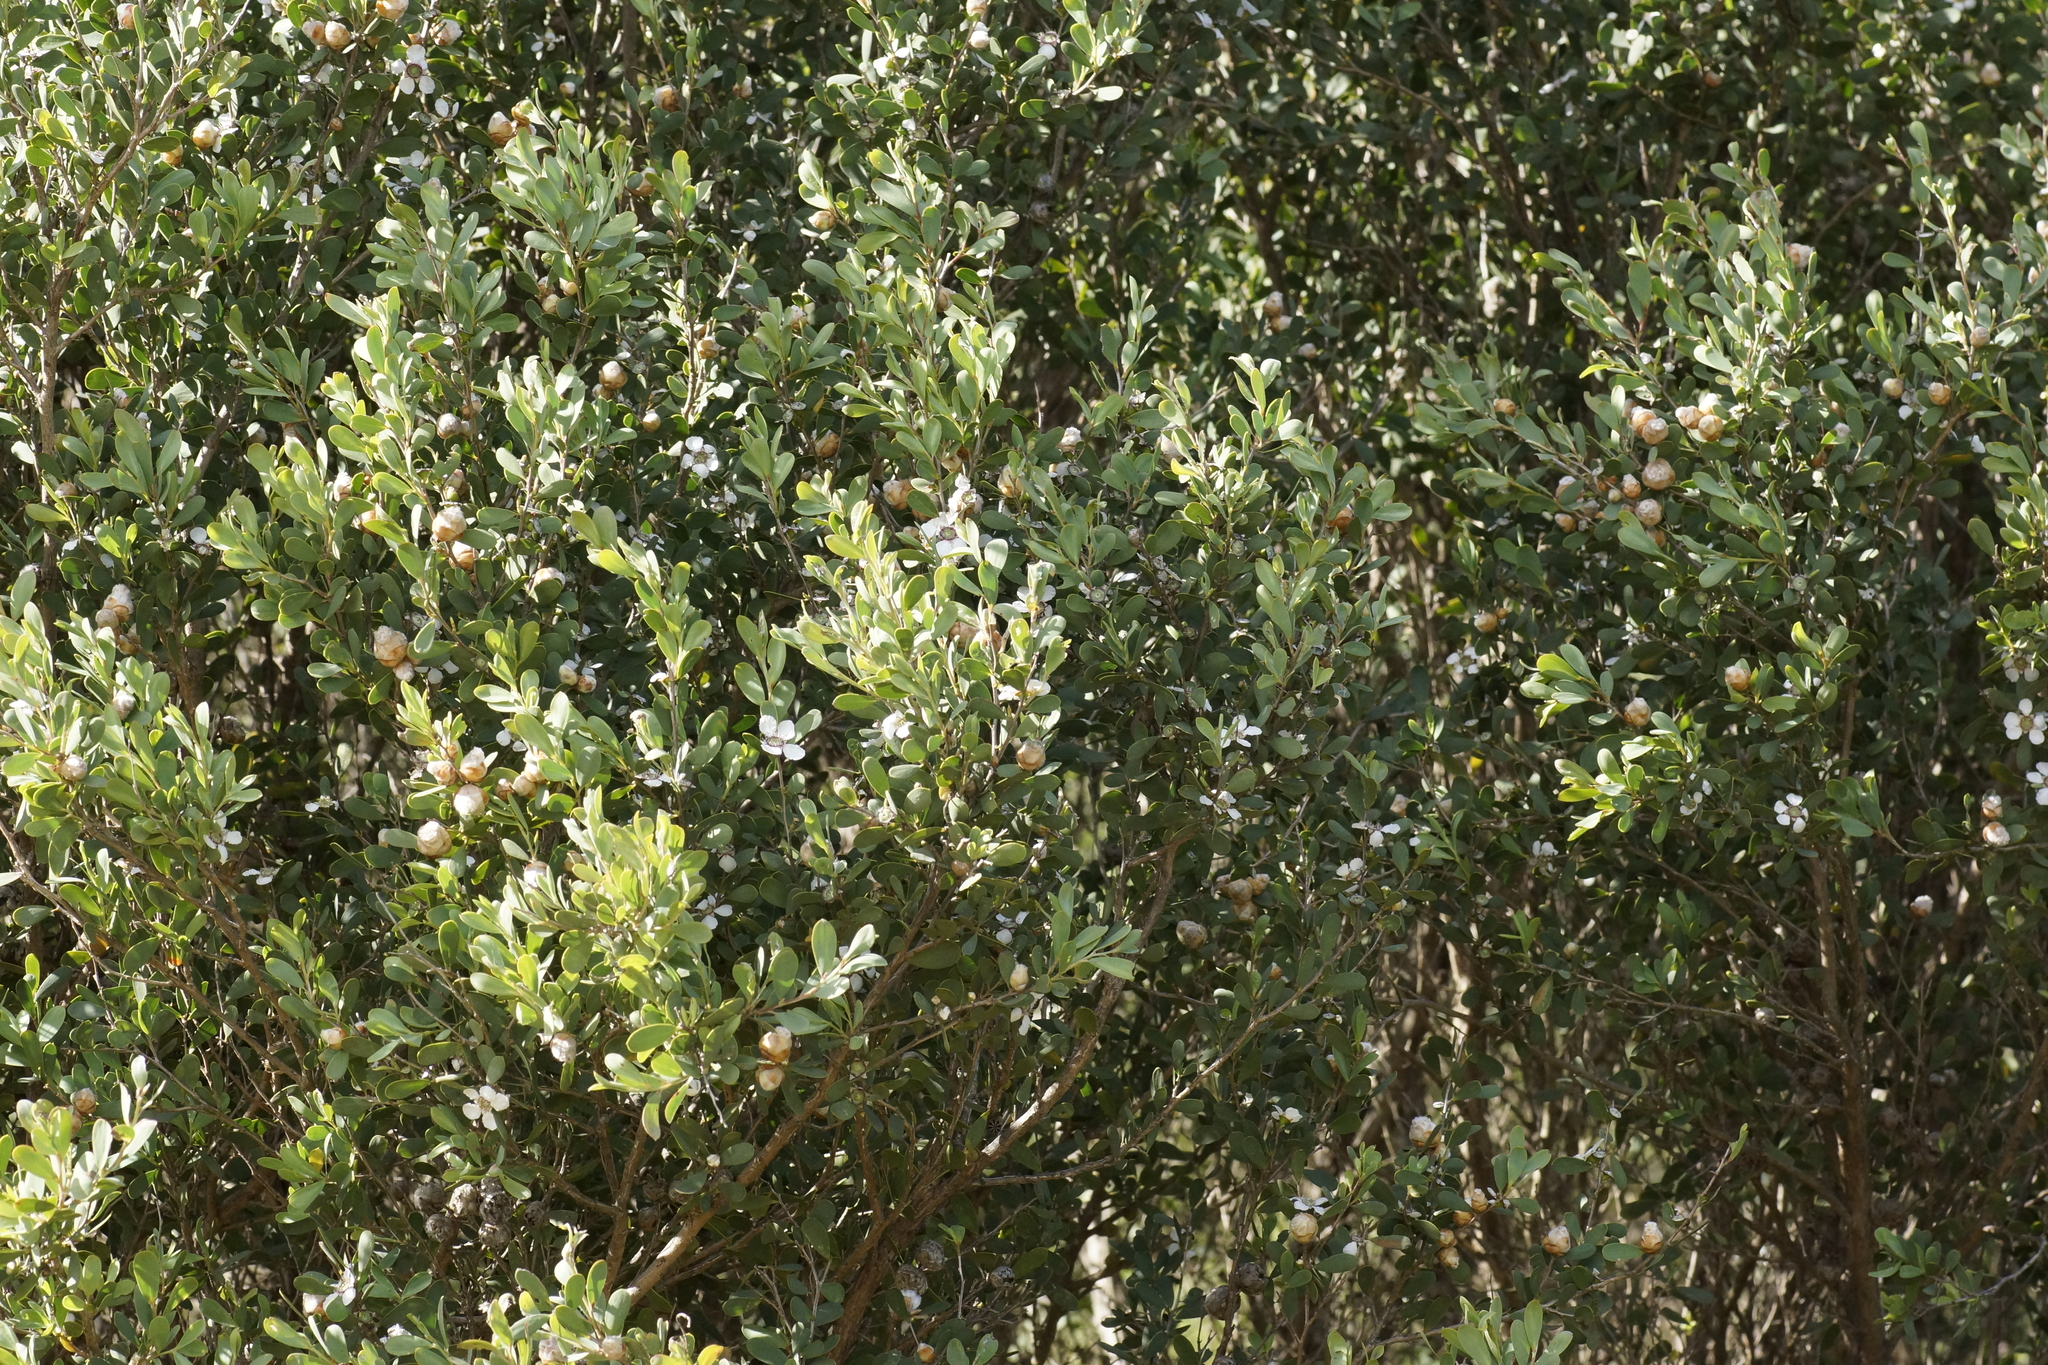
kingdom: Plantae
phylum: Tracheophyta
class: Magnoliopsida
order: Myrtales
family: Myrtaceae
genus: Leptospermum
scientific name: Leptospermum laevigatum
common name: Australian teatree
